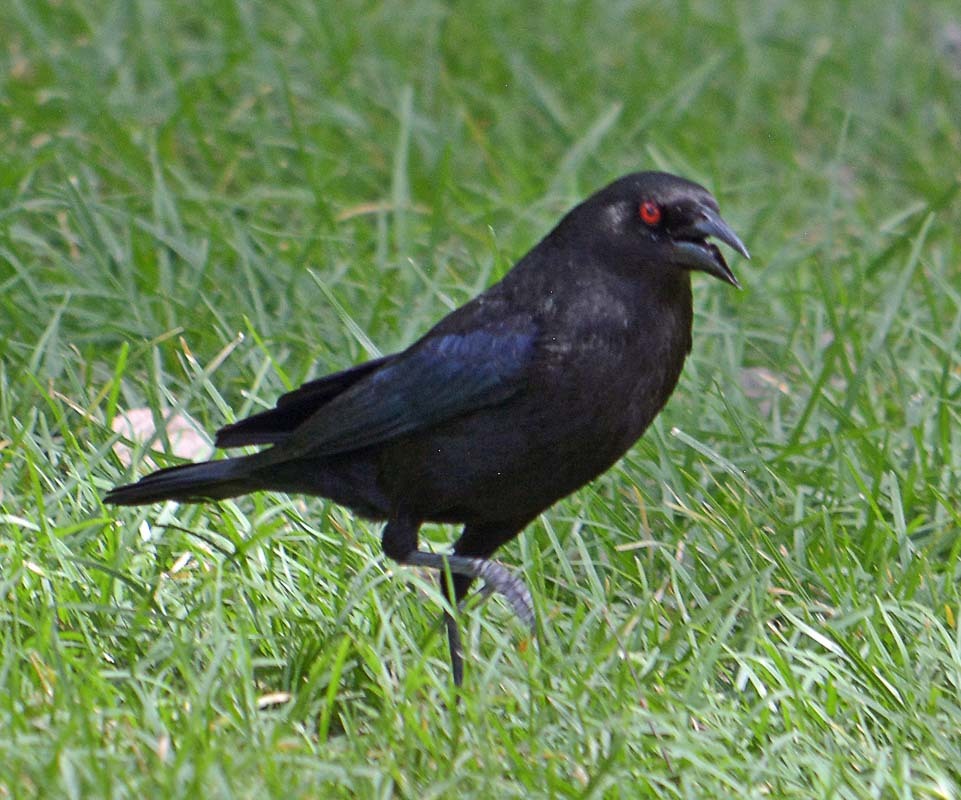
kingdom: Animalia
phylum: Chordata
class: Aves
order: Passeriformes
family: Icteridae
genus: Molothrus
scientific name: Molothrus aeneus
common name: Bronzed cowbird
